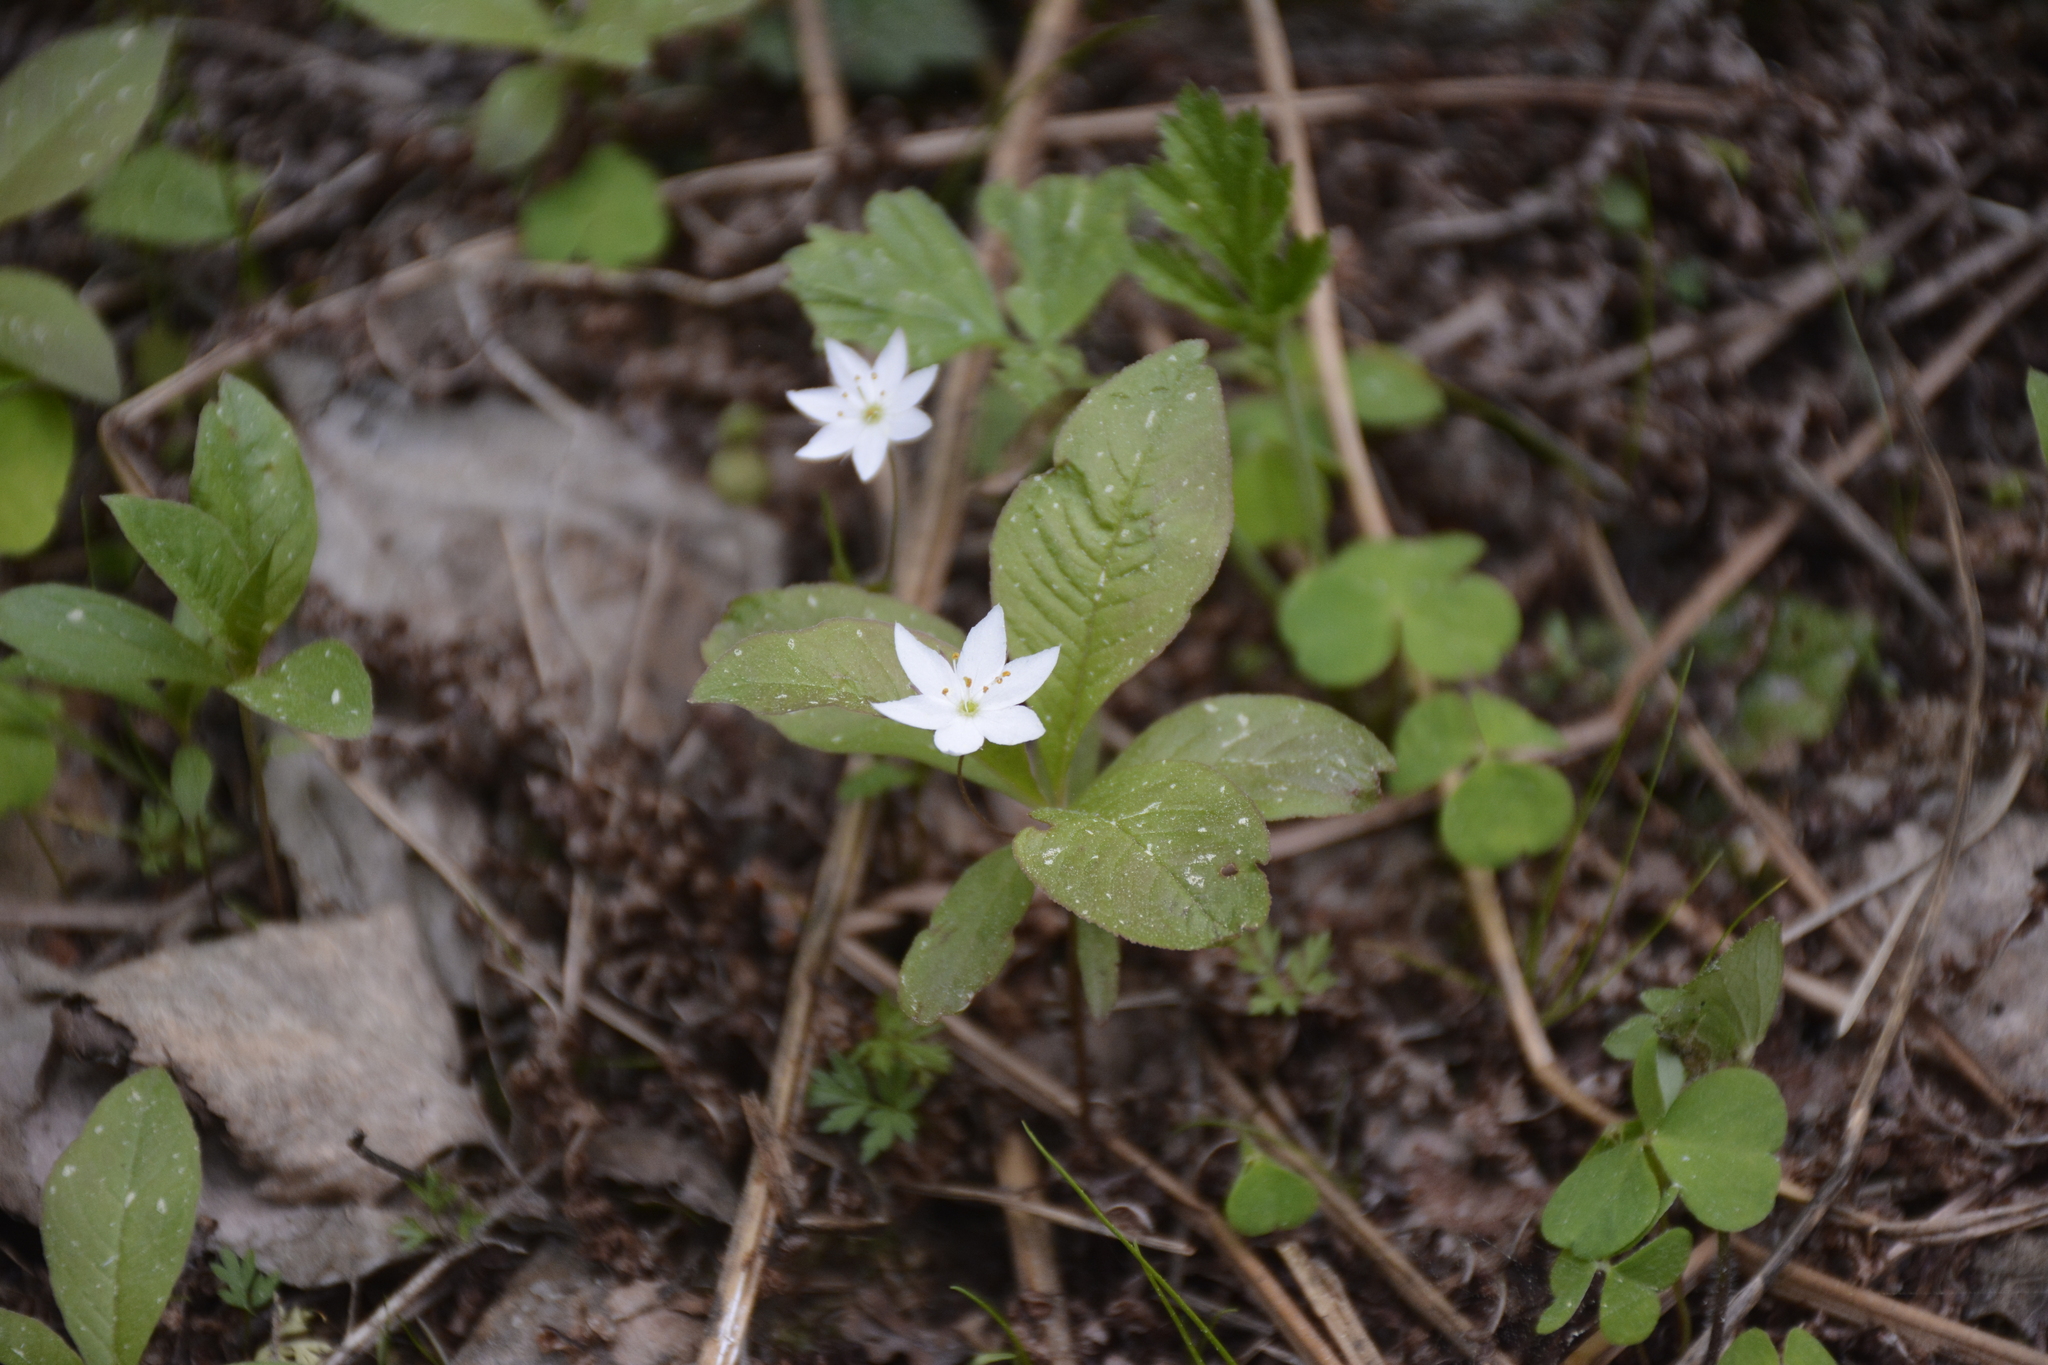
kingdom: Plantae
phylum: Tracheophyta
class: Magnoliopsida
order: Ericales
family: Primulaceae
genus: Lysimachia
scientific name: Lysimachia europaea
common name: Arctic starflower
